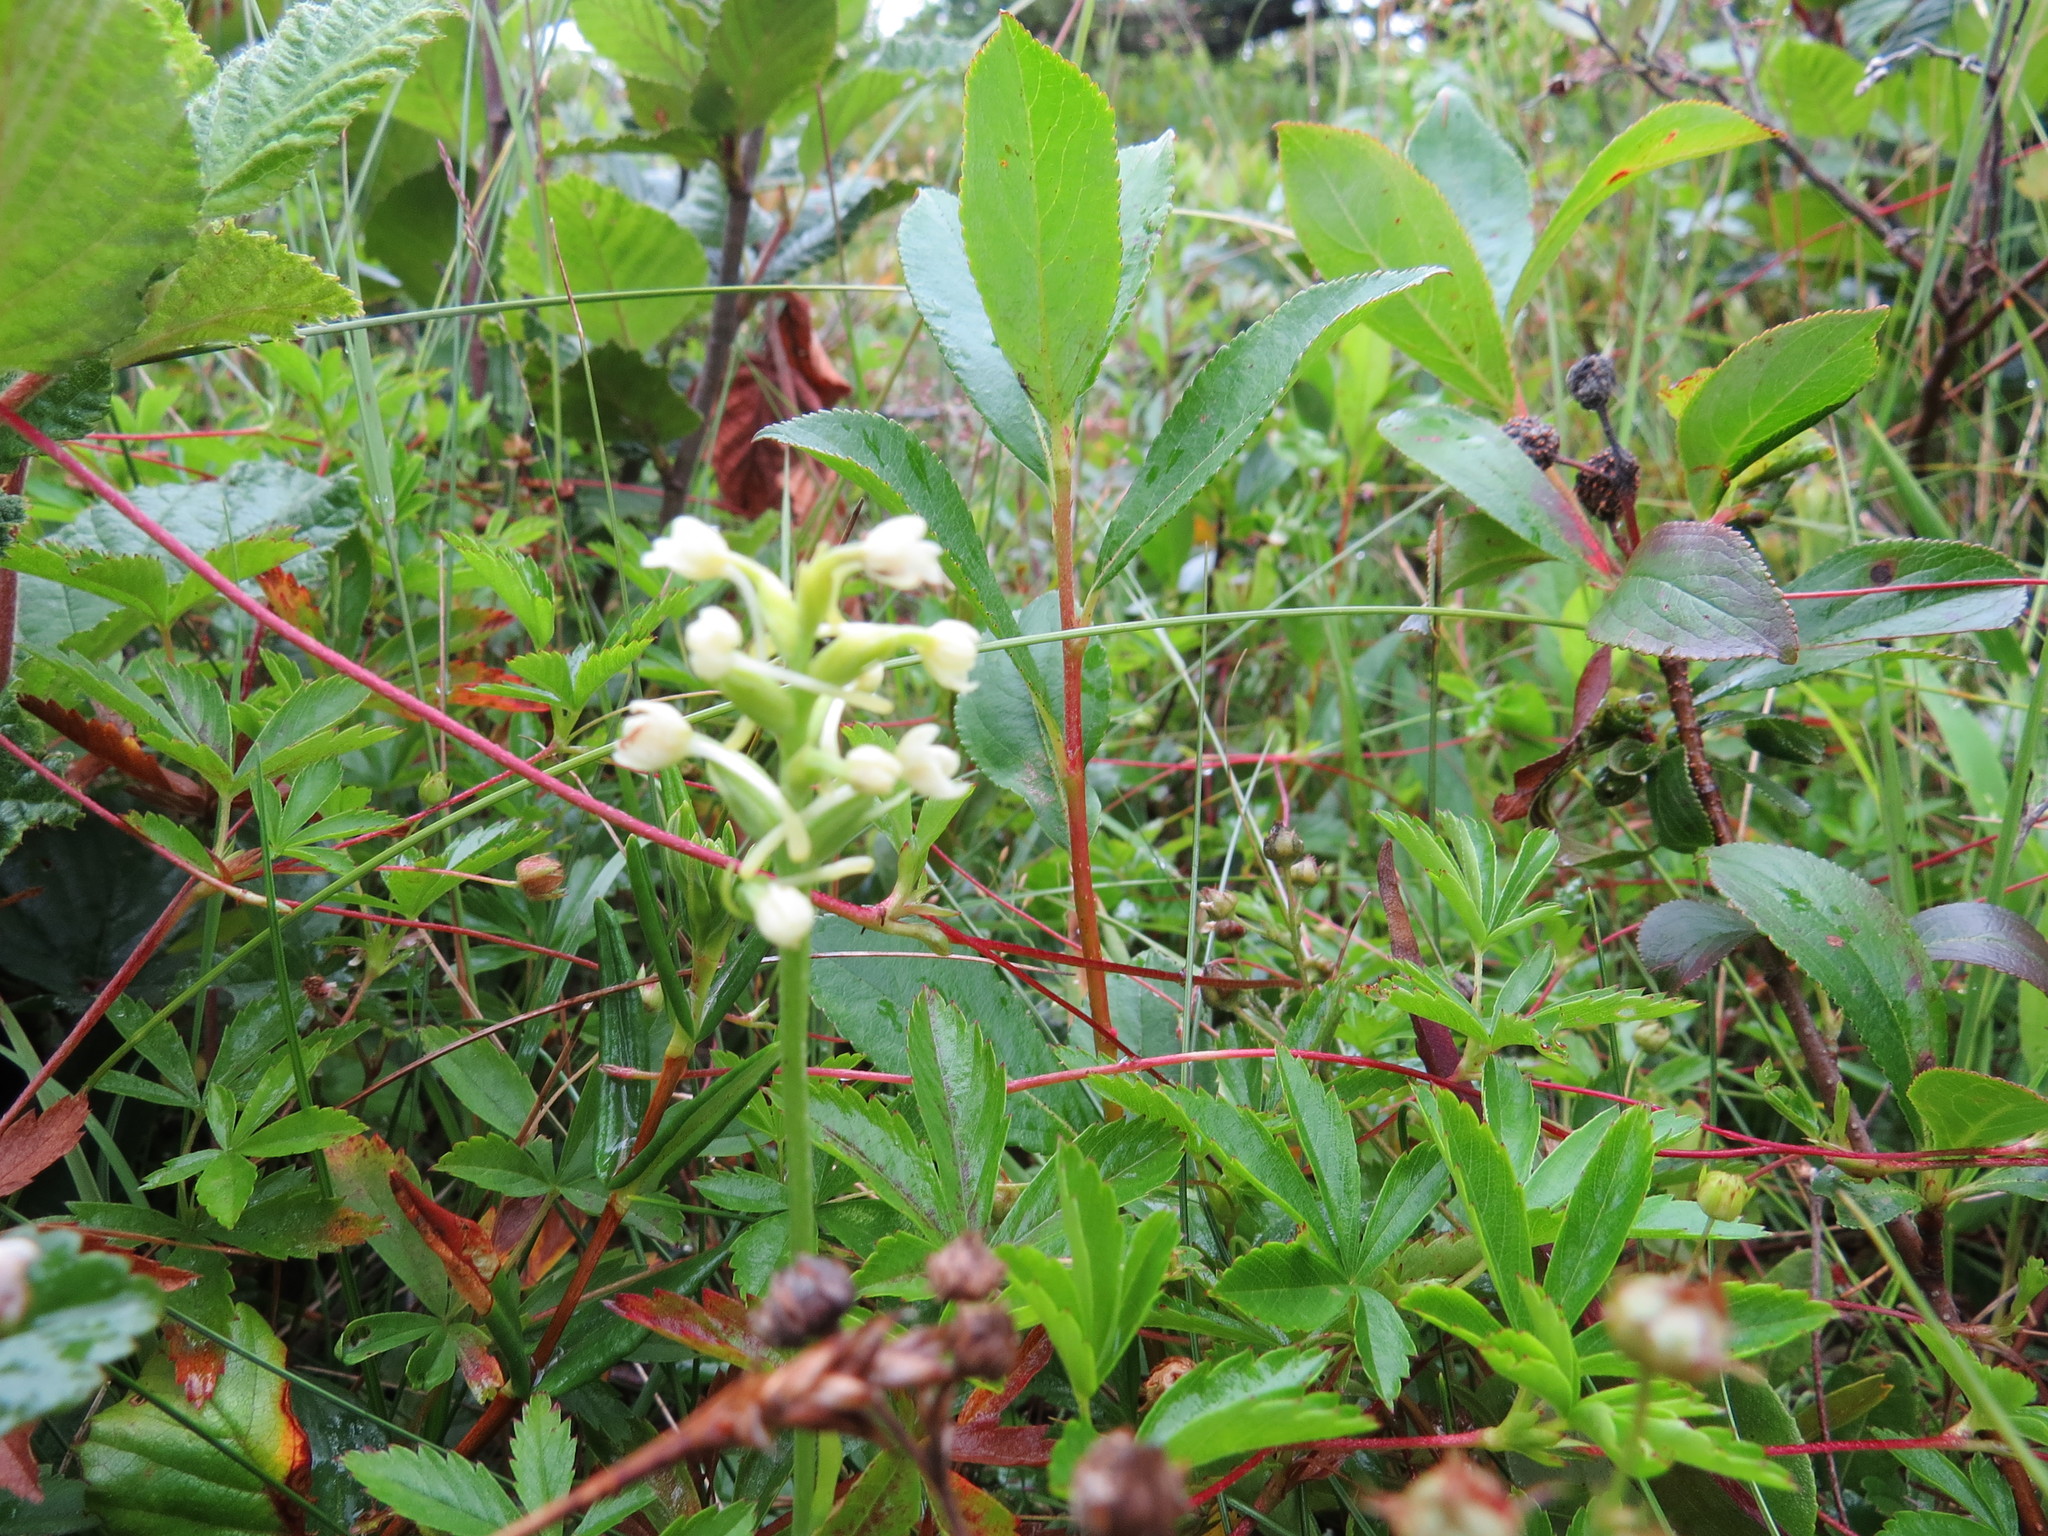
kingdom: Plantae
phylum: Tracheophyta
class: Liliopsida
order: Asparagales
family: Orchidaceae
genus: Platanthera
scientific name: Platanthera clavellata
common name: Club-spur orchid
